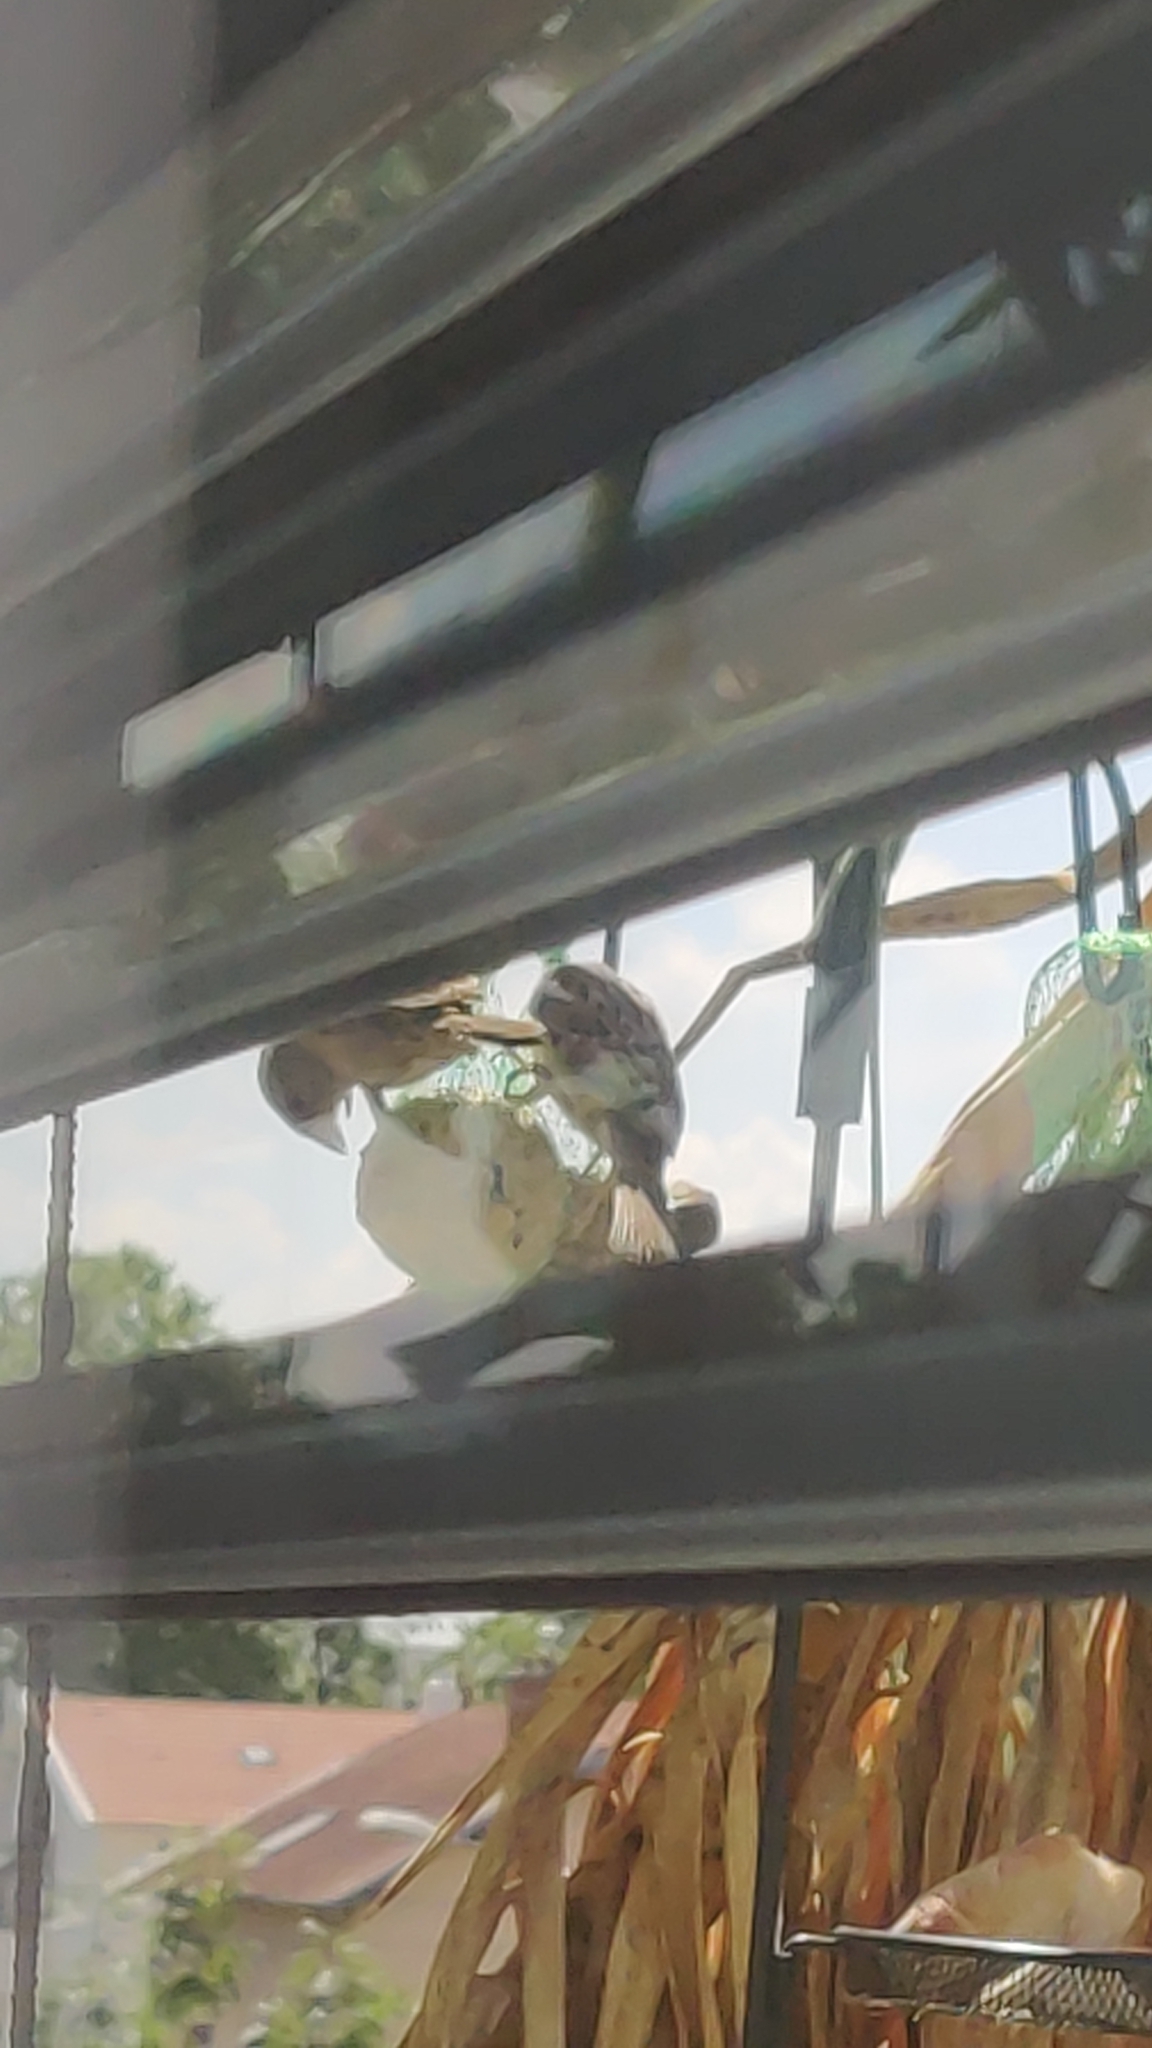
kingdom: Animalia
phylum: Chordata
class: Aves
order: Passeriformes
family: Passeridae
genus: Passer
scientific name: Passer domesticus
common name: House sparrow
